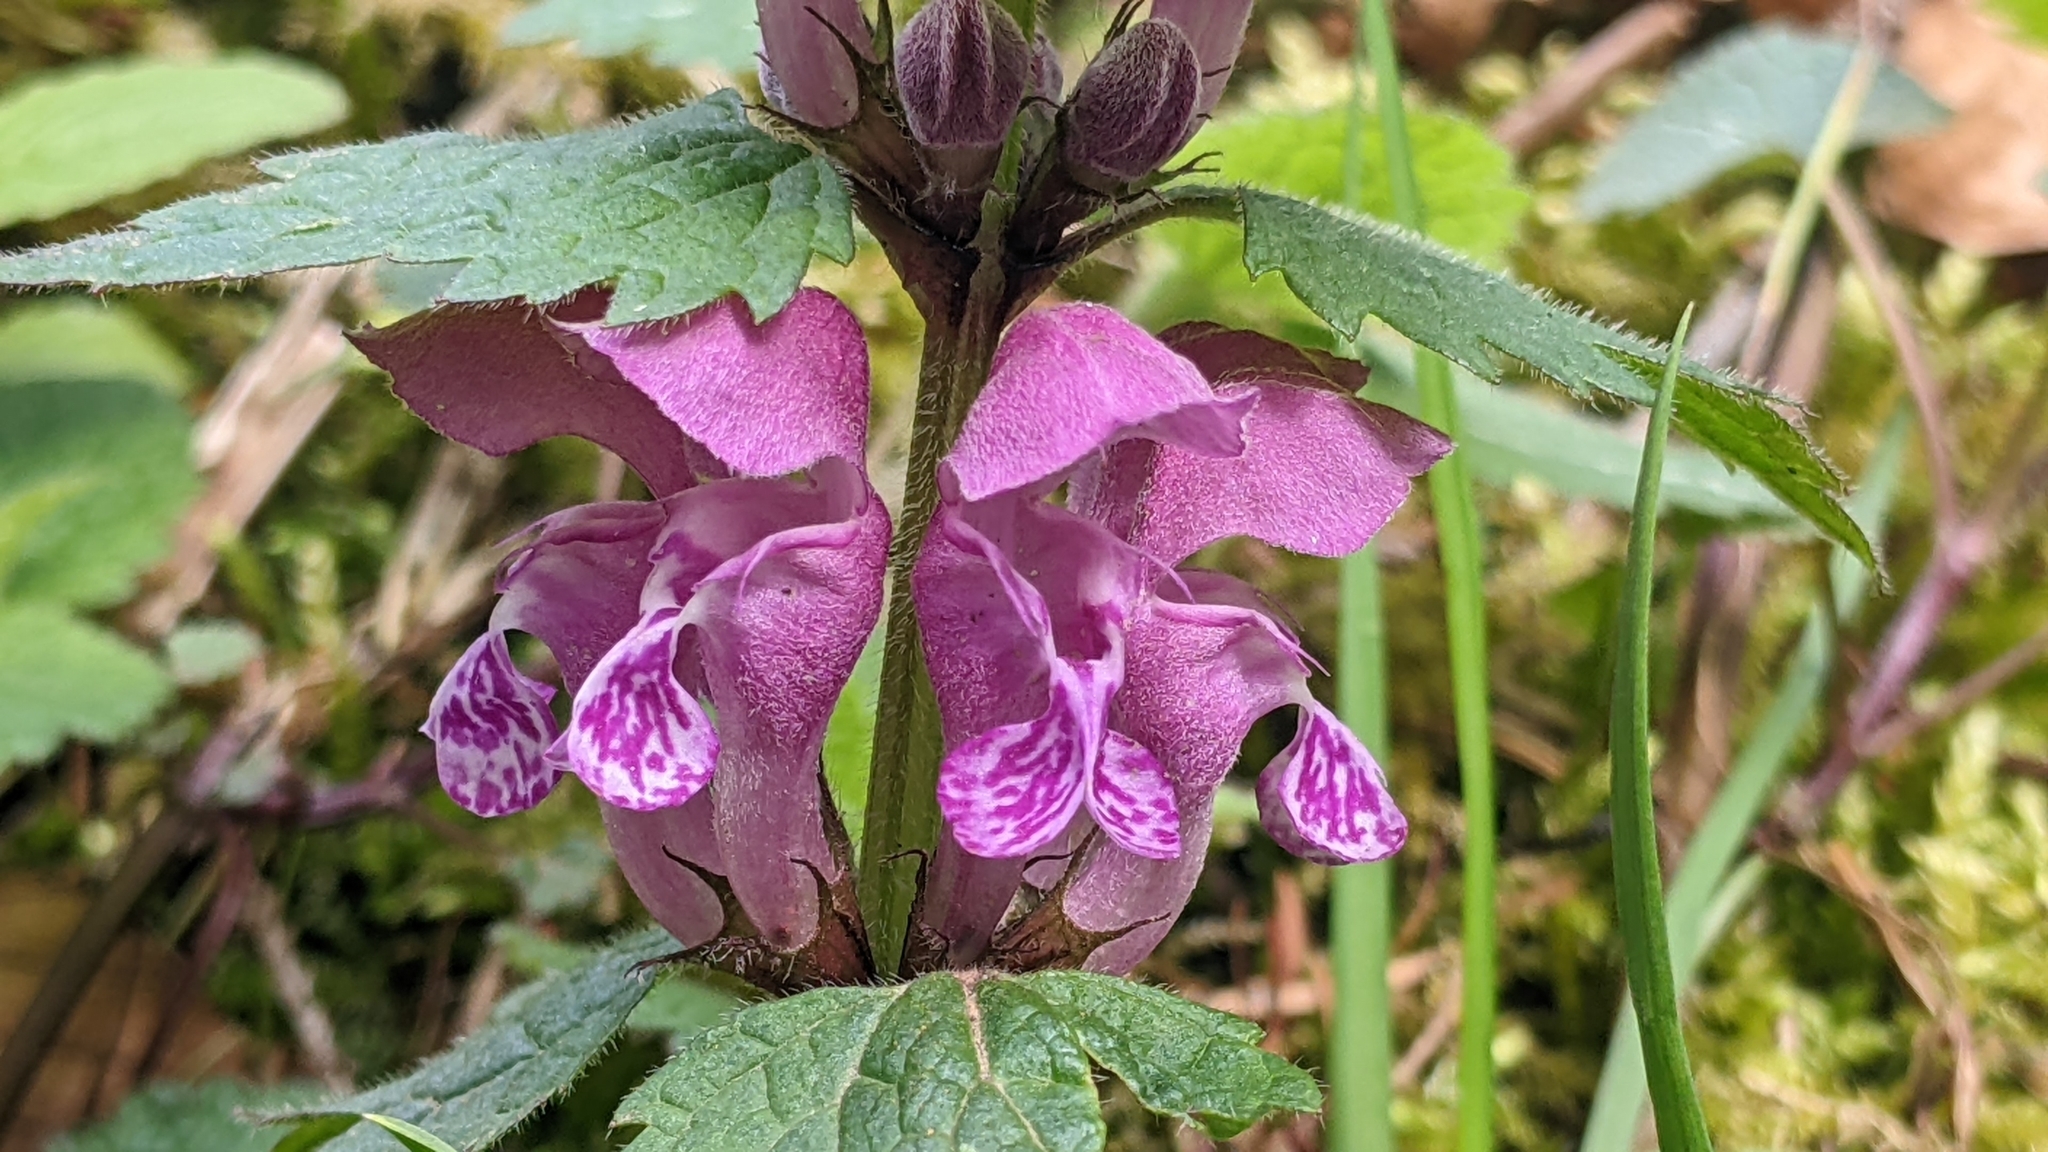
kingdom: Plantae
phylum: Tracheophyta
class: Magnoliopsida
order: Lamiales
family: Lamiaceae
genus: Lamium
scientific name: Lamium maculatum
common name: Spotted dead-nettle
